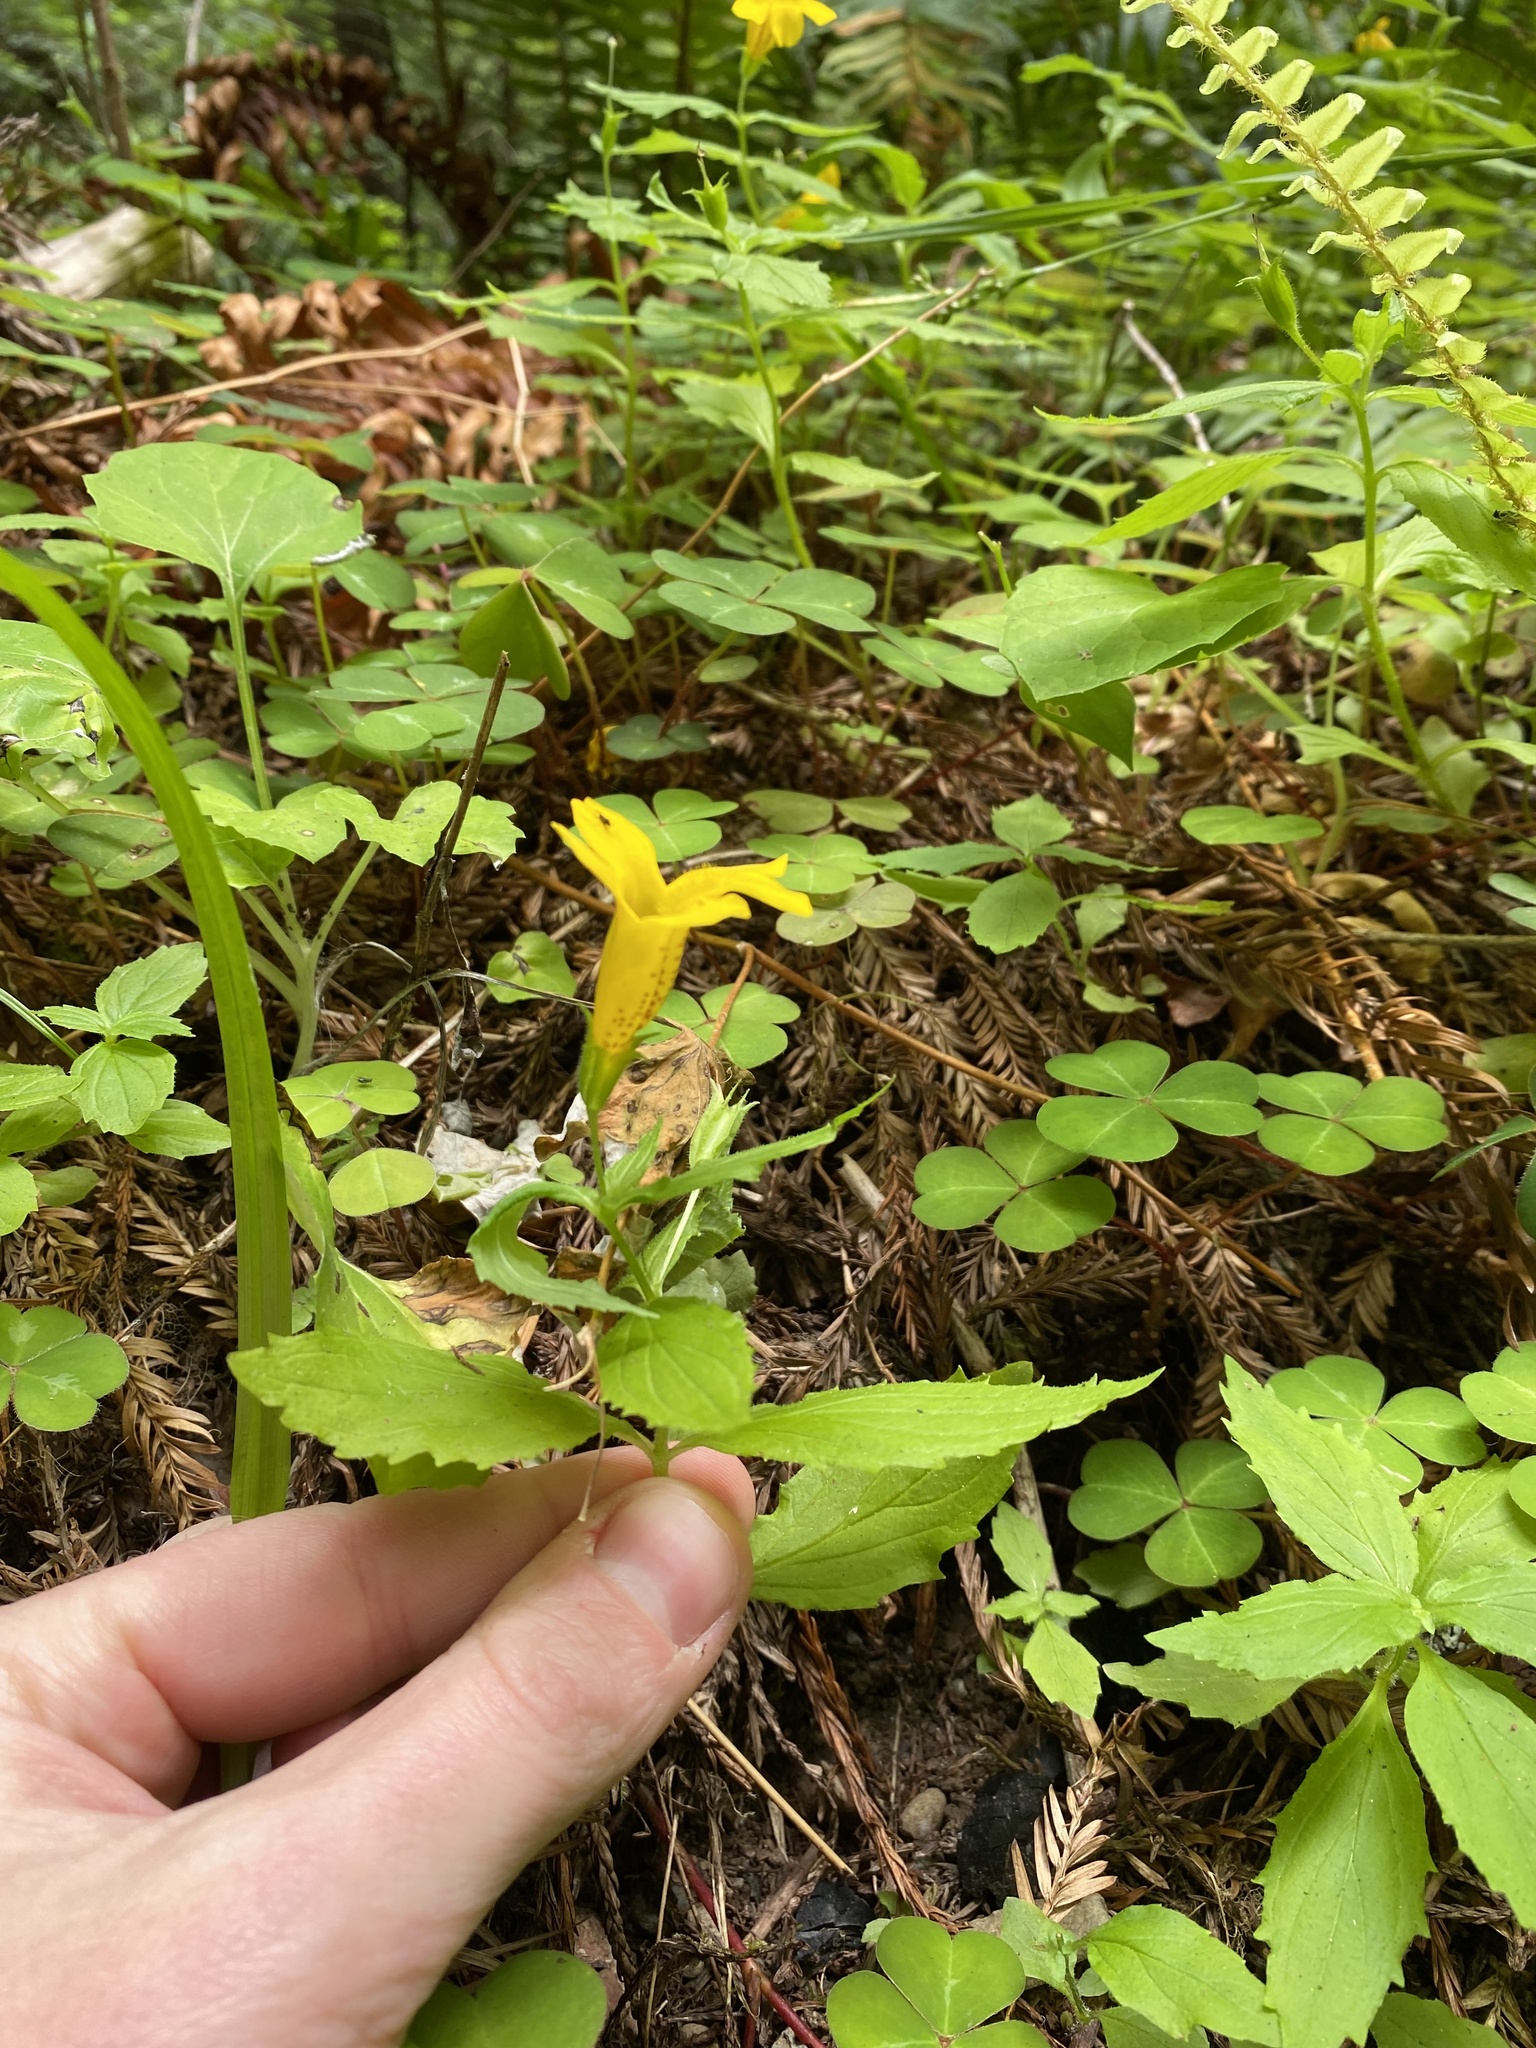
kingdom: Plantae
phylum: Tracheophyta
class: Magnoliopsida
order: Lamiales
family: Phrymaceae
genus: Erythranthe
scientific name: Erythranthe dentata
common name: Coastal monkeyflower
